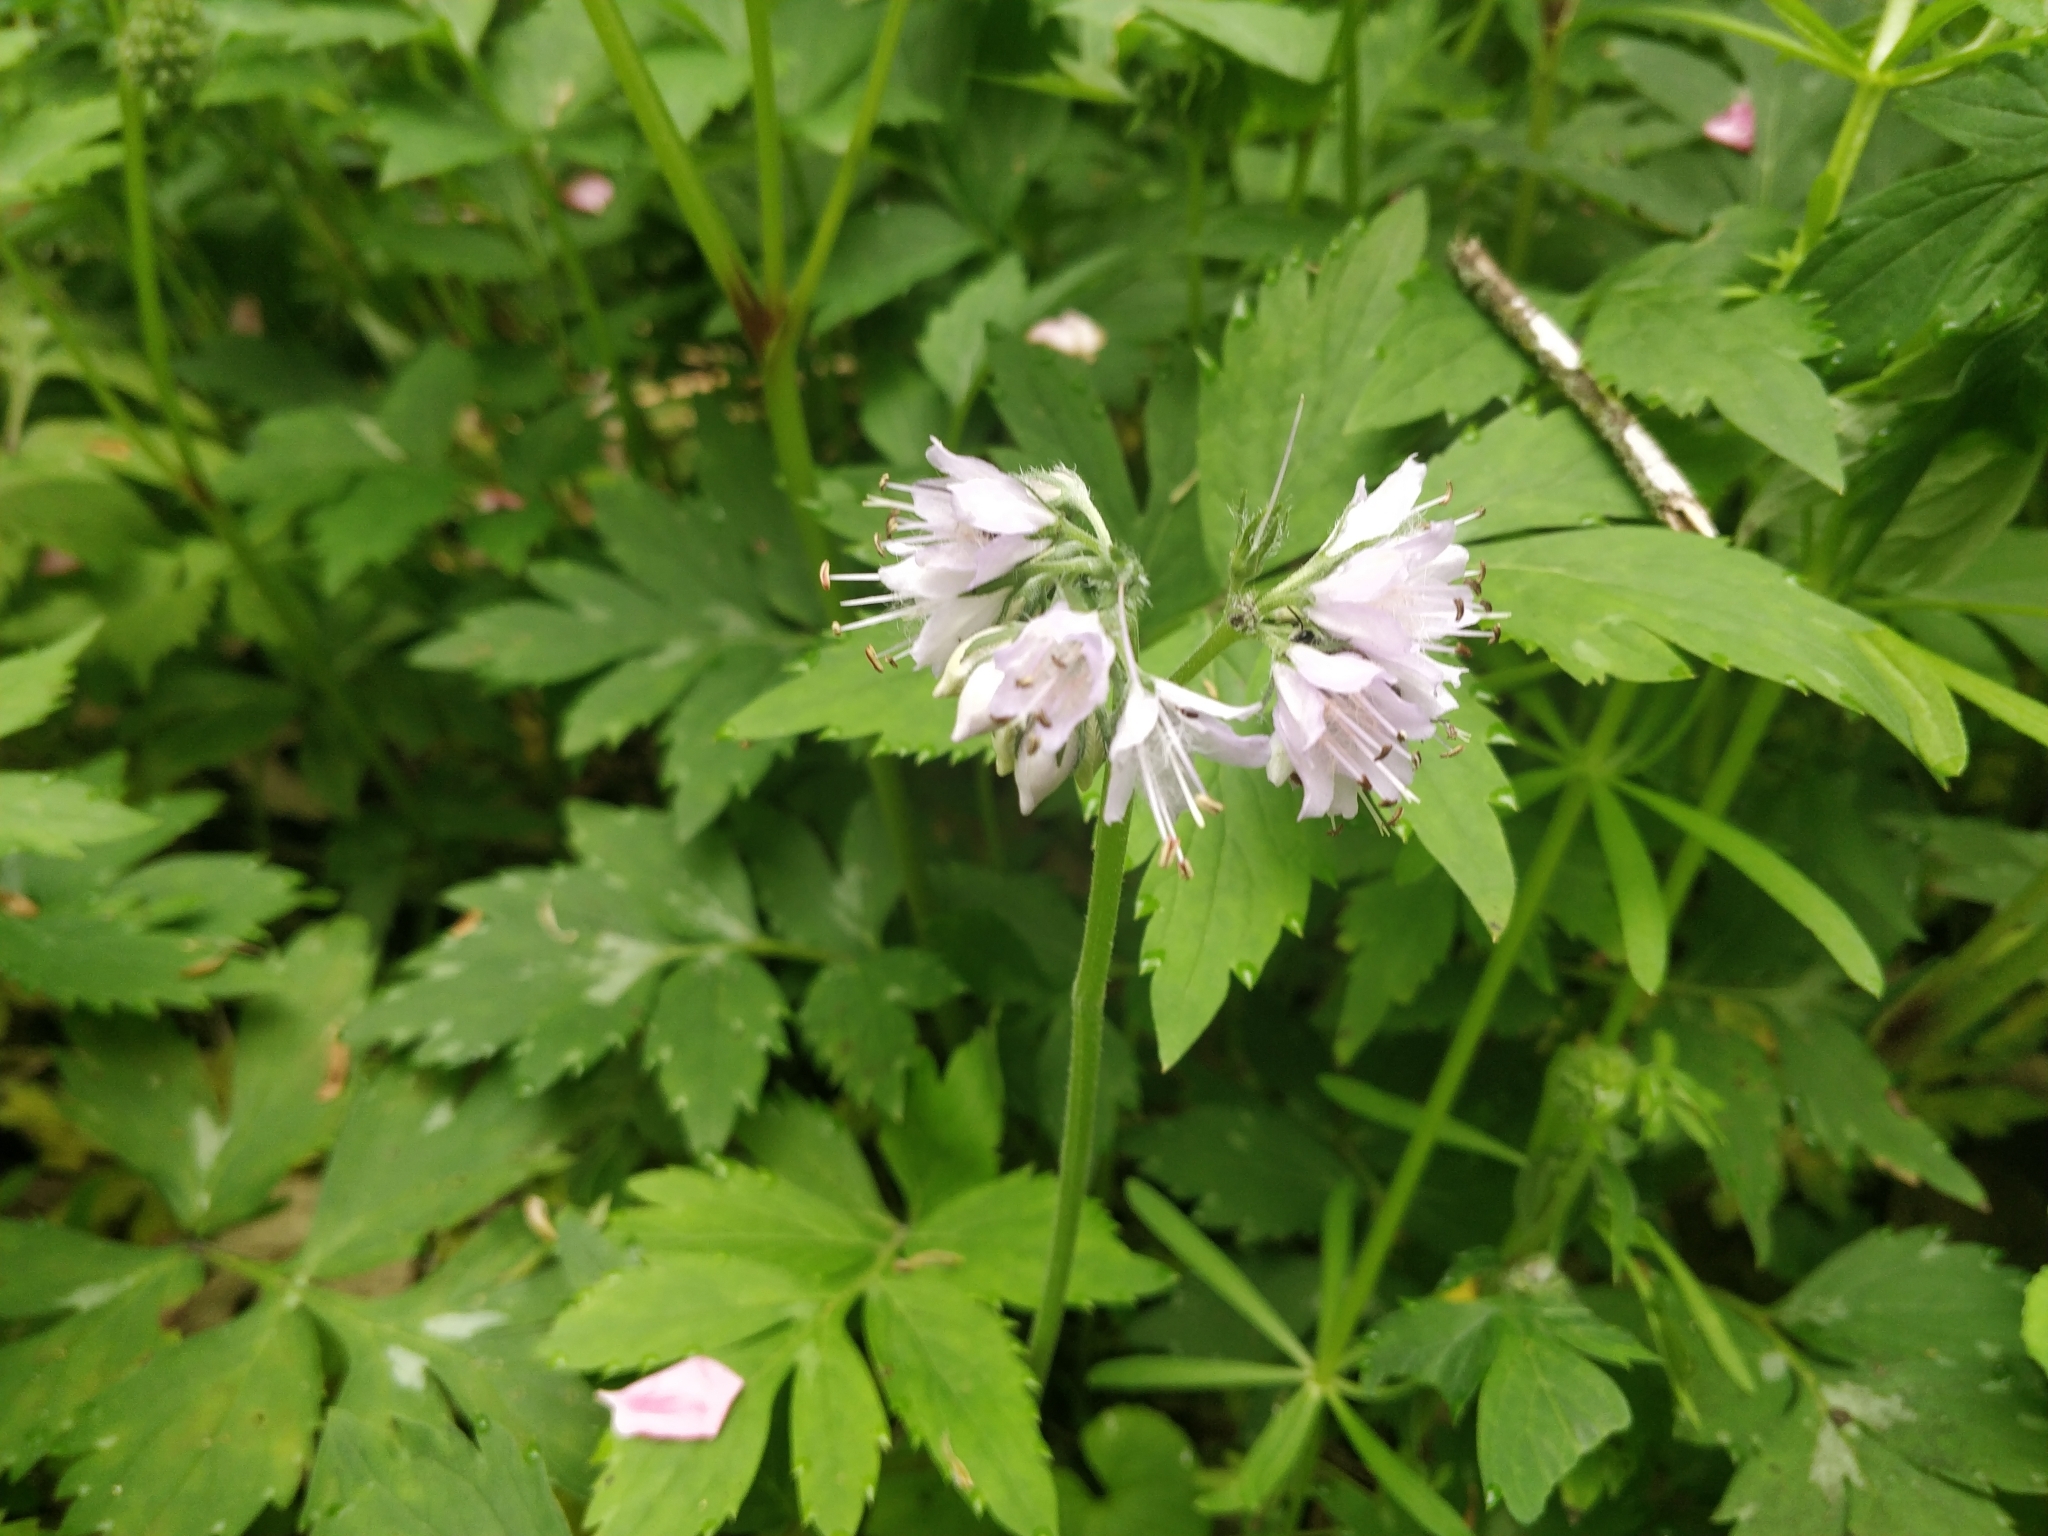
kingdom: Plantae
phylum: Tracheophyta
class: Magnoliopsida
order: Boraginales
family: Hydrophyllaceae
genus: Hydrophyllum
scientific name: Hydrophyllum virginianum
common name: Virginia waterleaf
